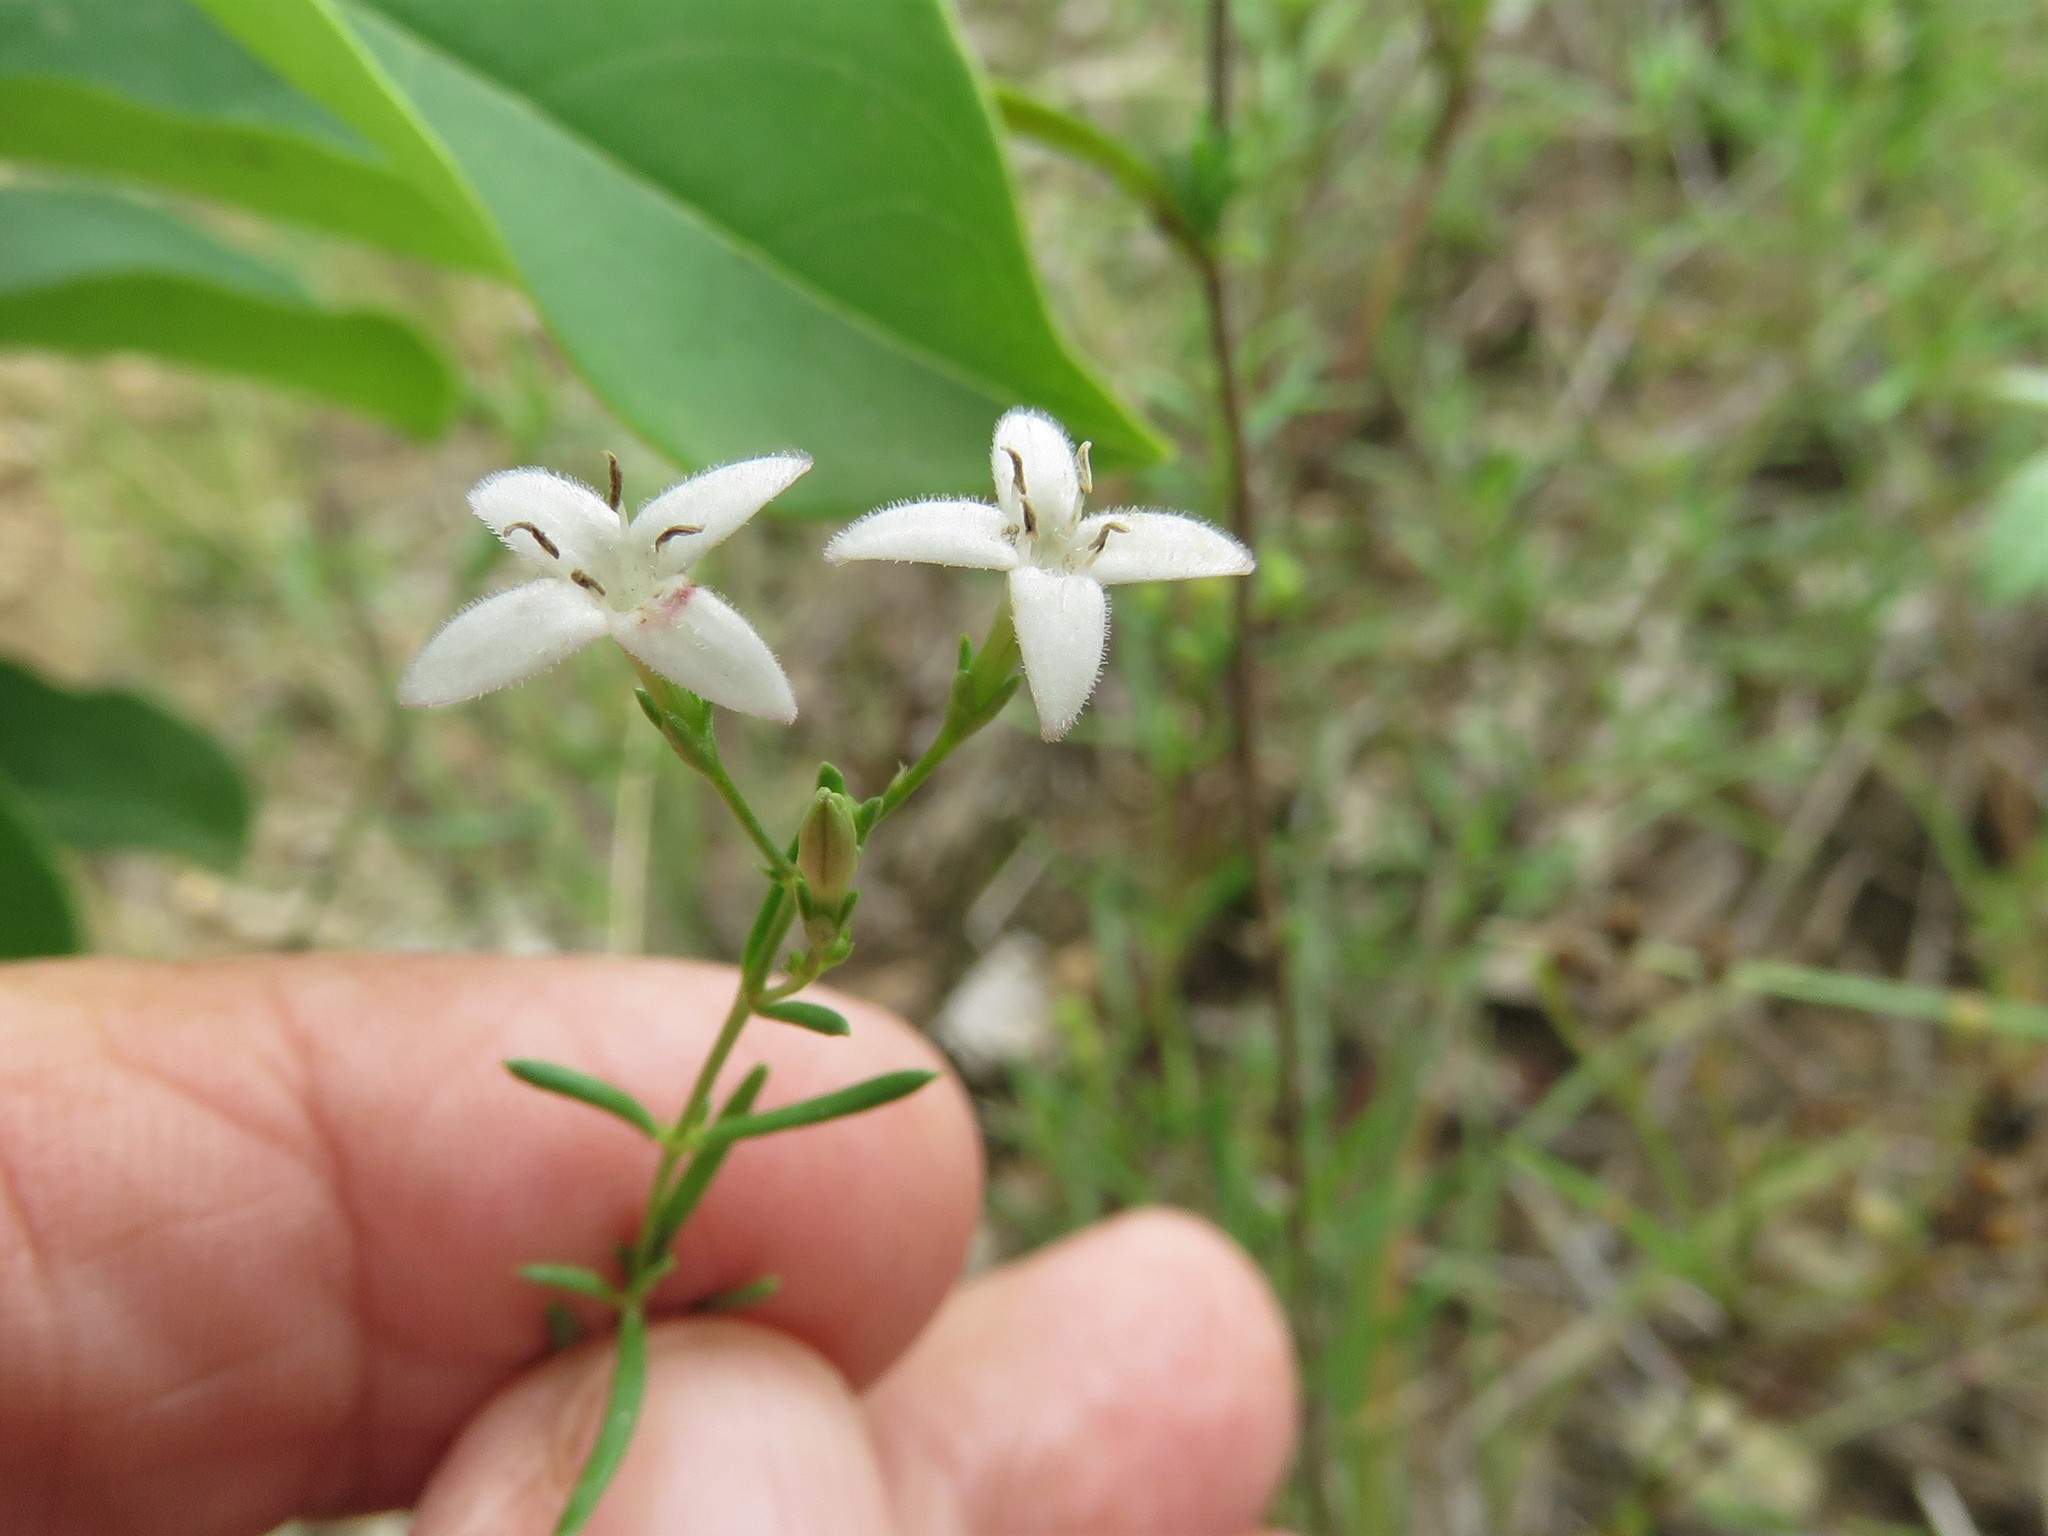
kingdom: Plantae
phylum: Tracheophyta
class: Magnoliopsida
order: Gentianales
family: Rubiaceae
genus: Stenaria
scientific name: Stenaria nigricans
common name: Diamondflowers
